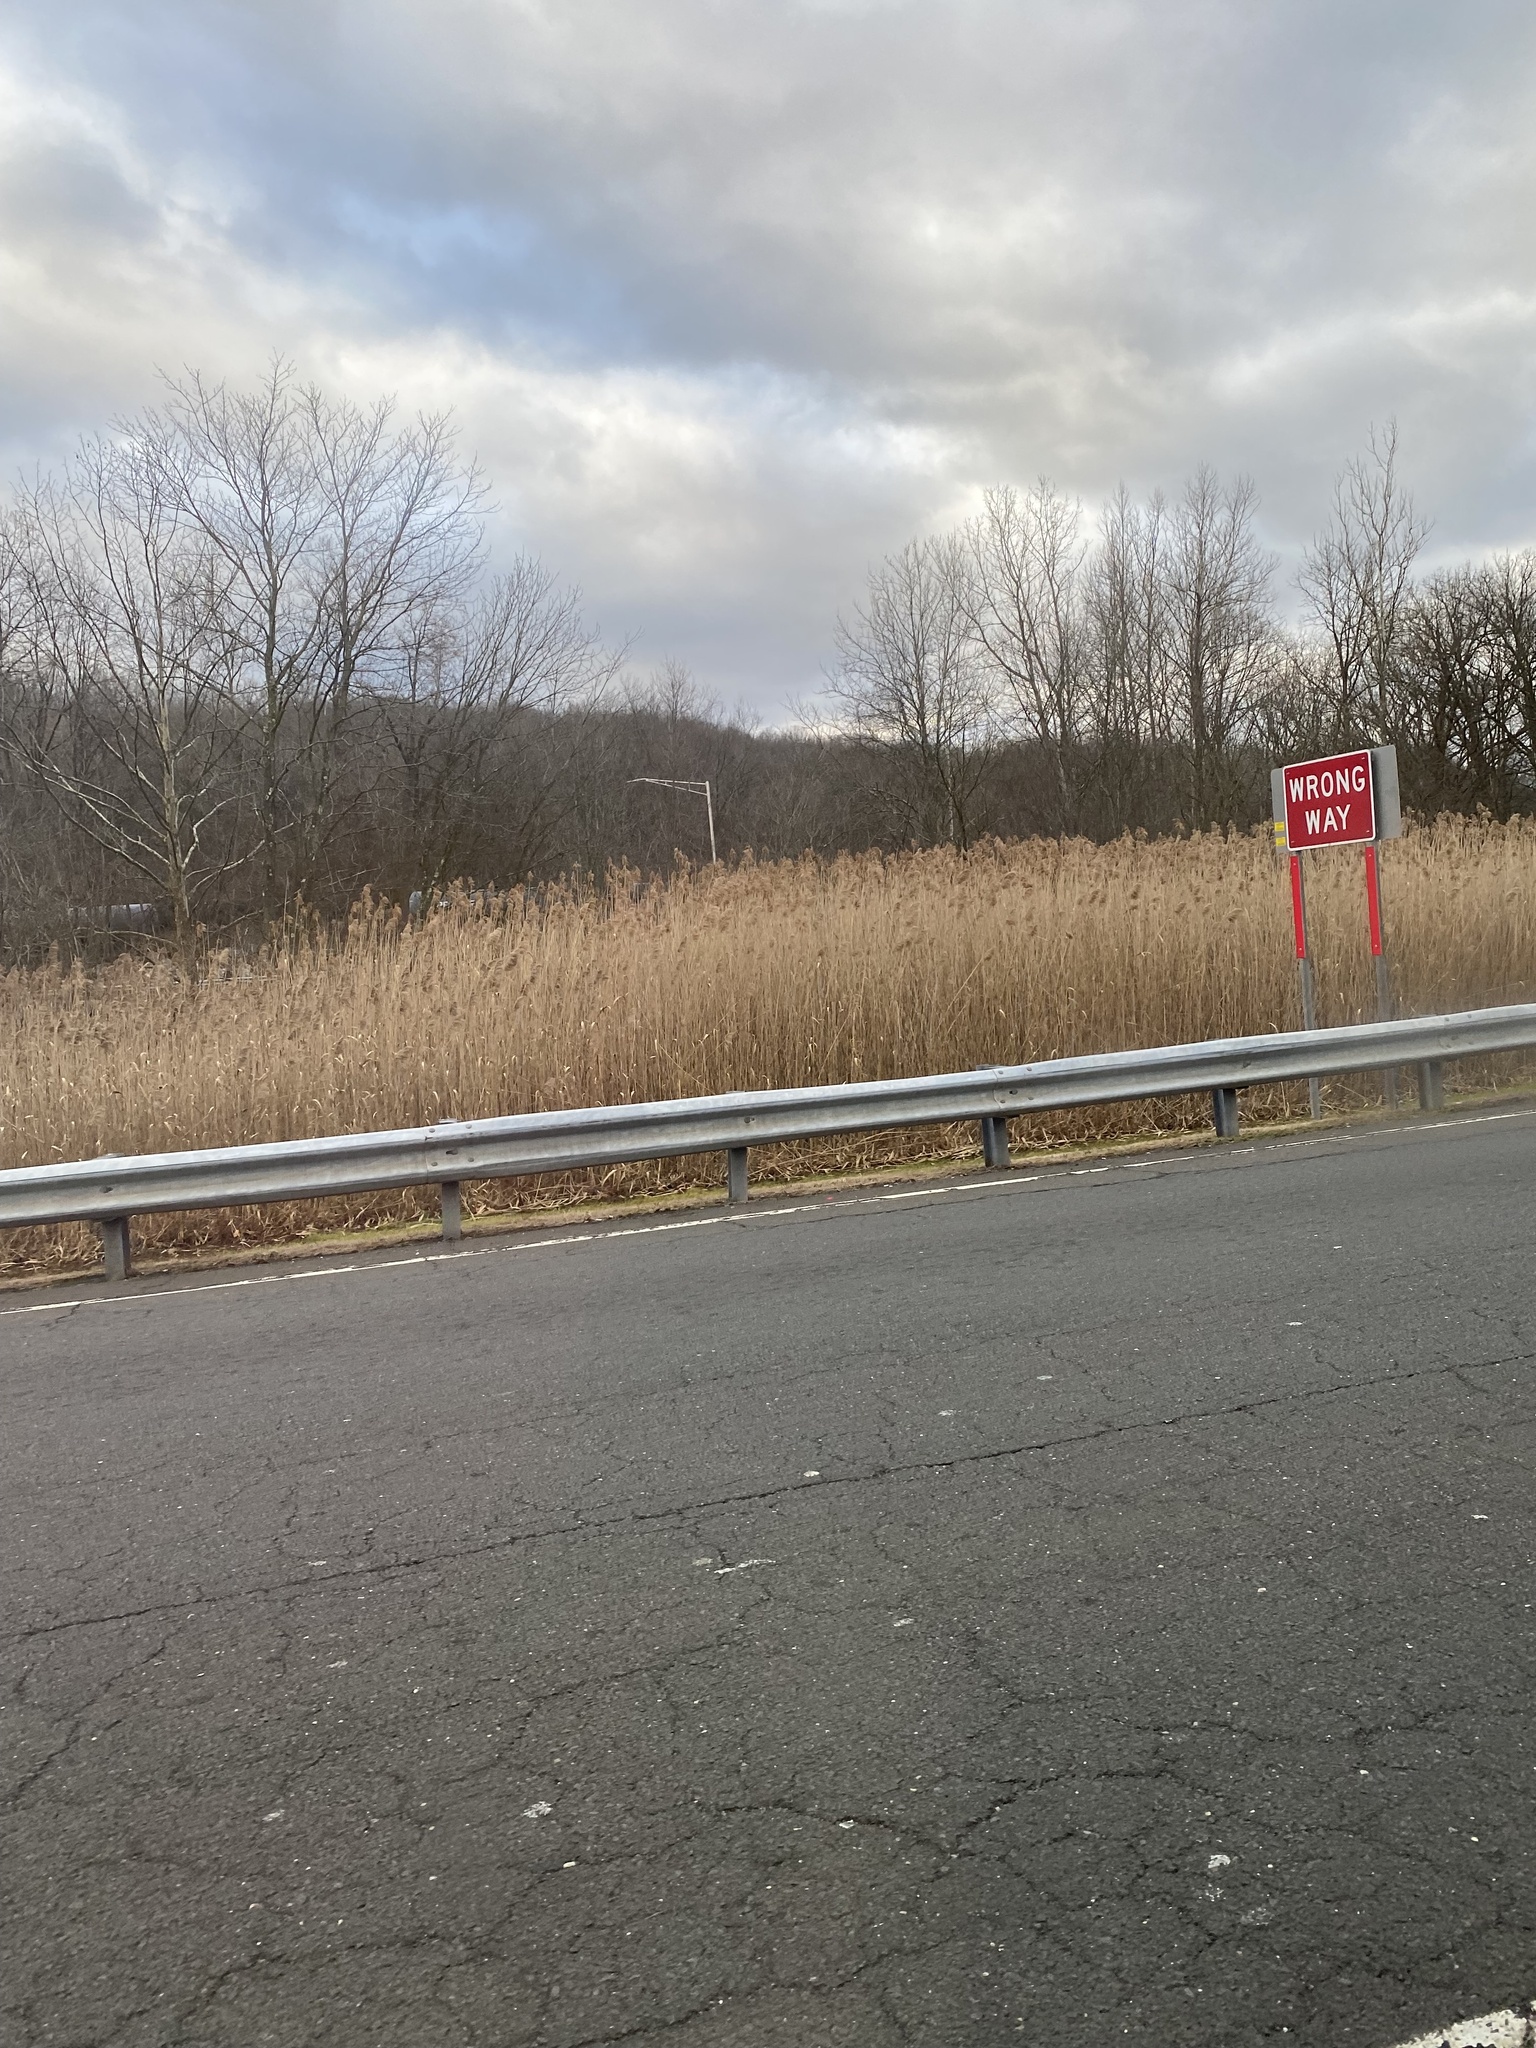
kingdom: Plantae
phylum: Tracheophyta
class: Liliopsida
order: Poales
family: Poaceae
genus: Phragmites
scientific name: Phragmites australis
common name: Common reed
